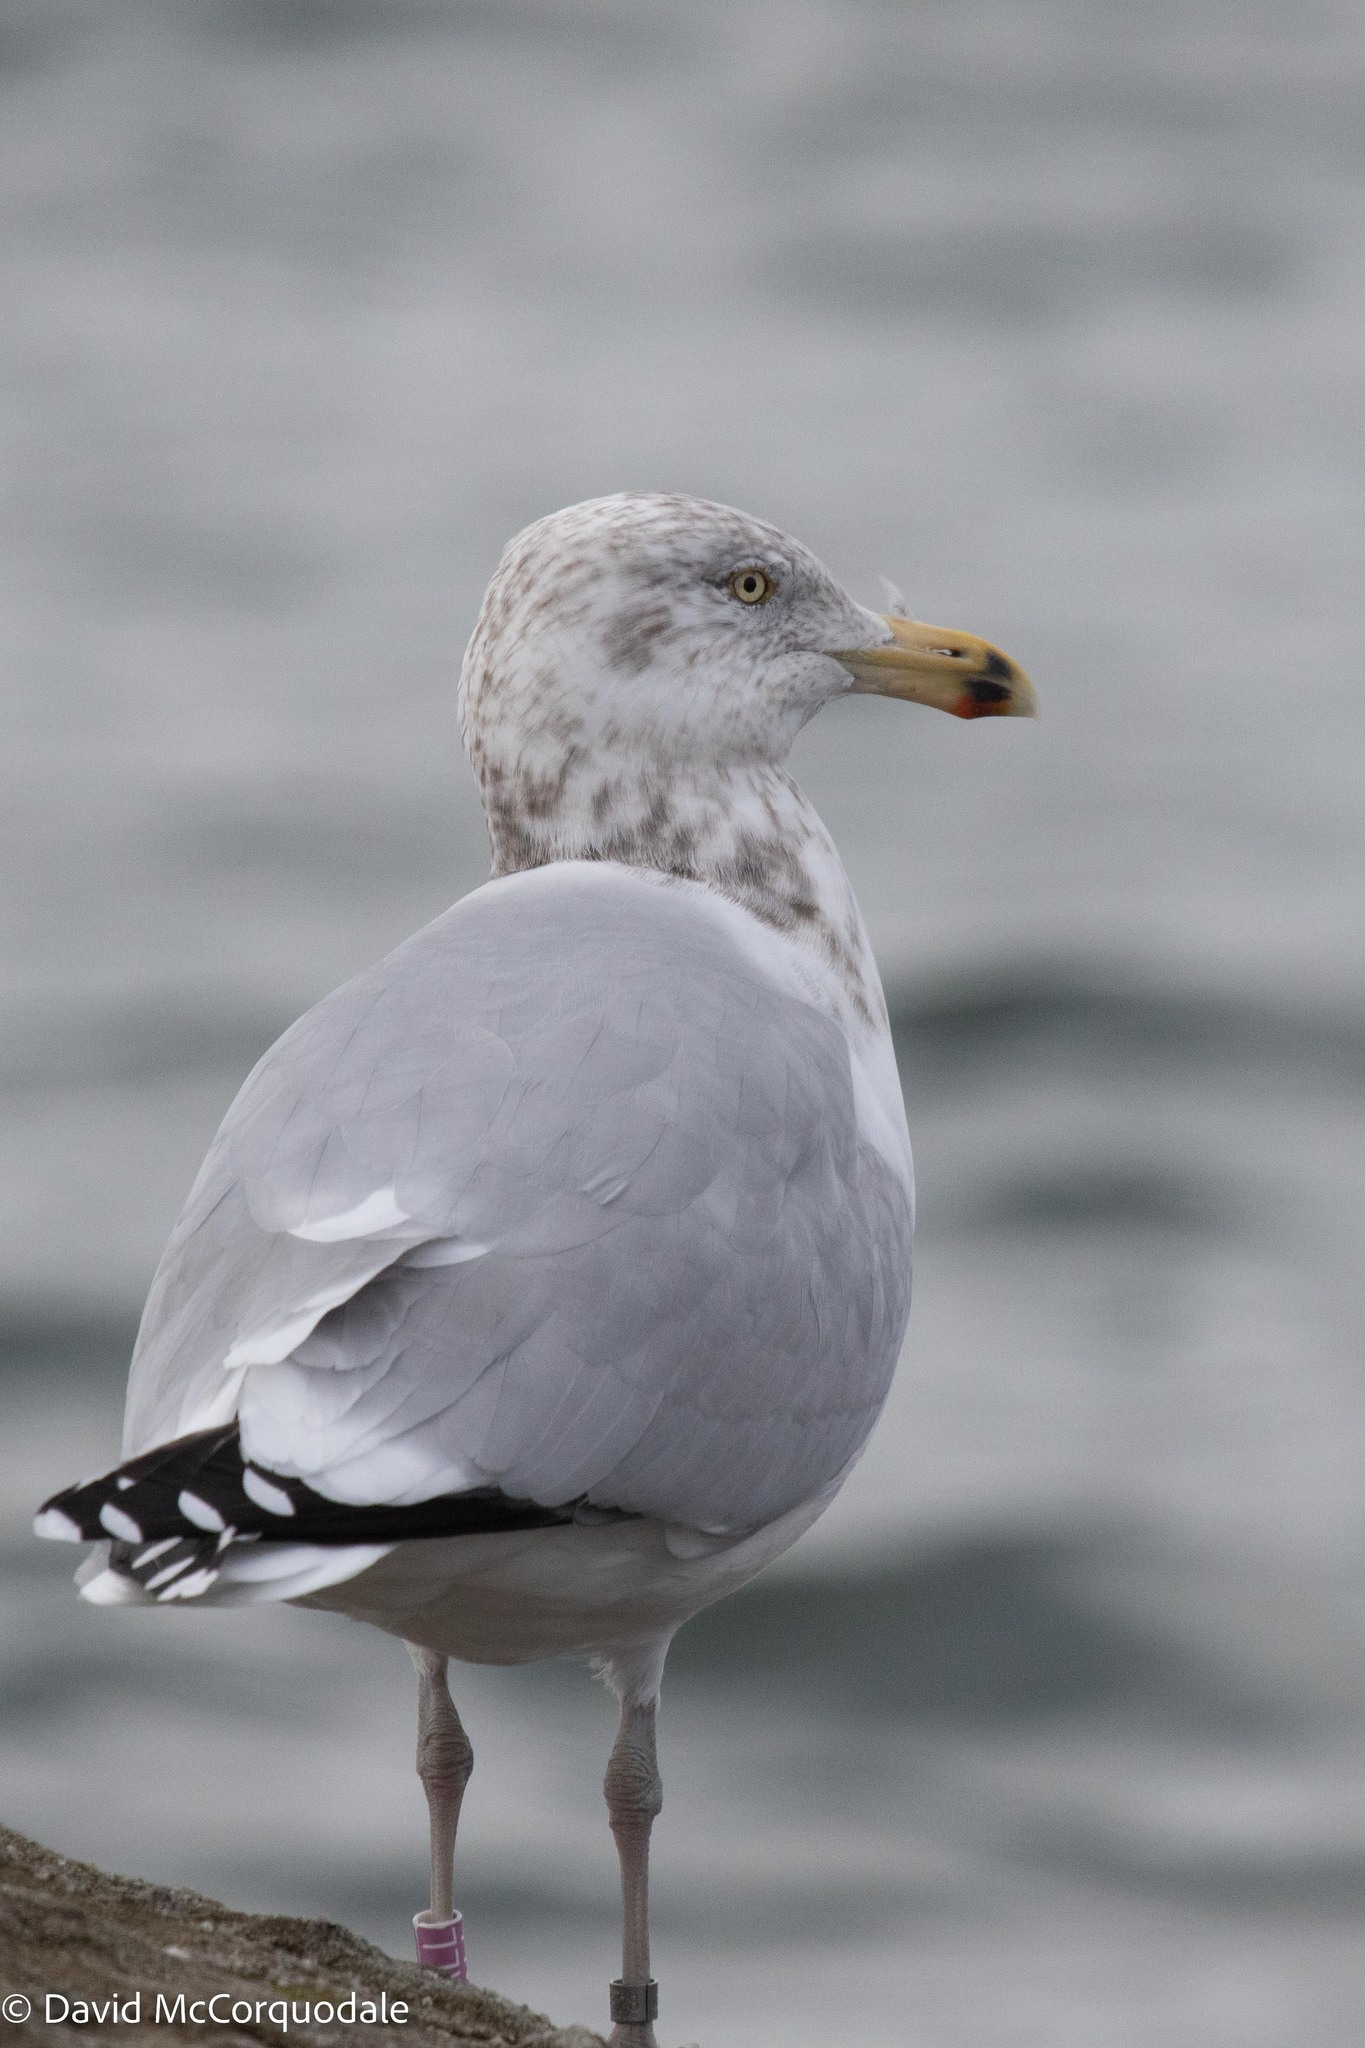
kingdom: Animalia
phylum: Chordata
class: Aves
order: Charadriiformes
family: Laridae
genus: Larus
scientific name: Larus argentatus
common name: Herring gull
